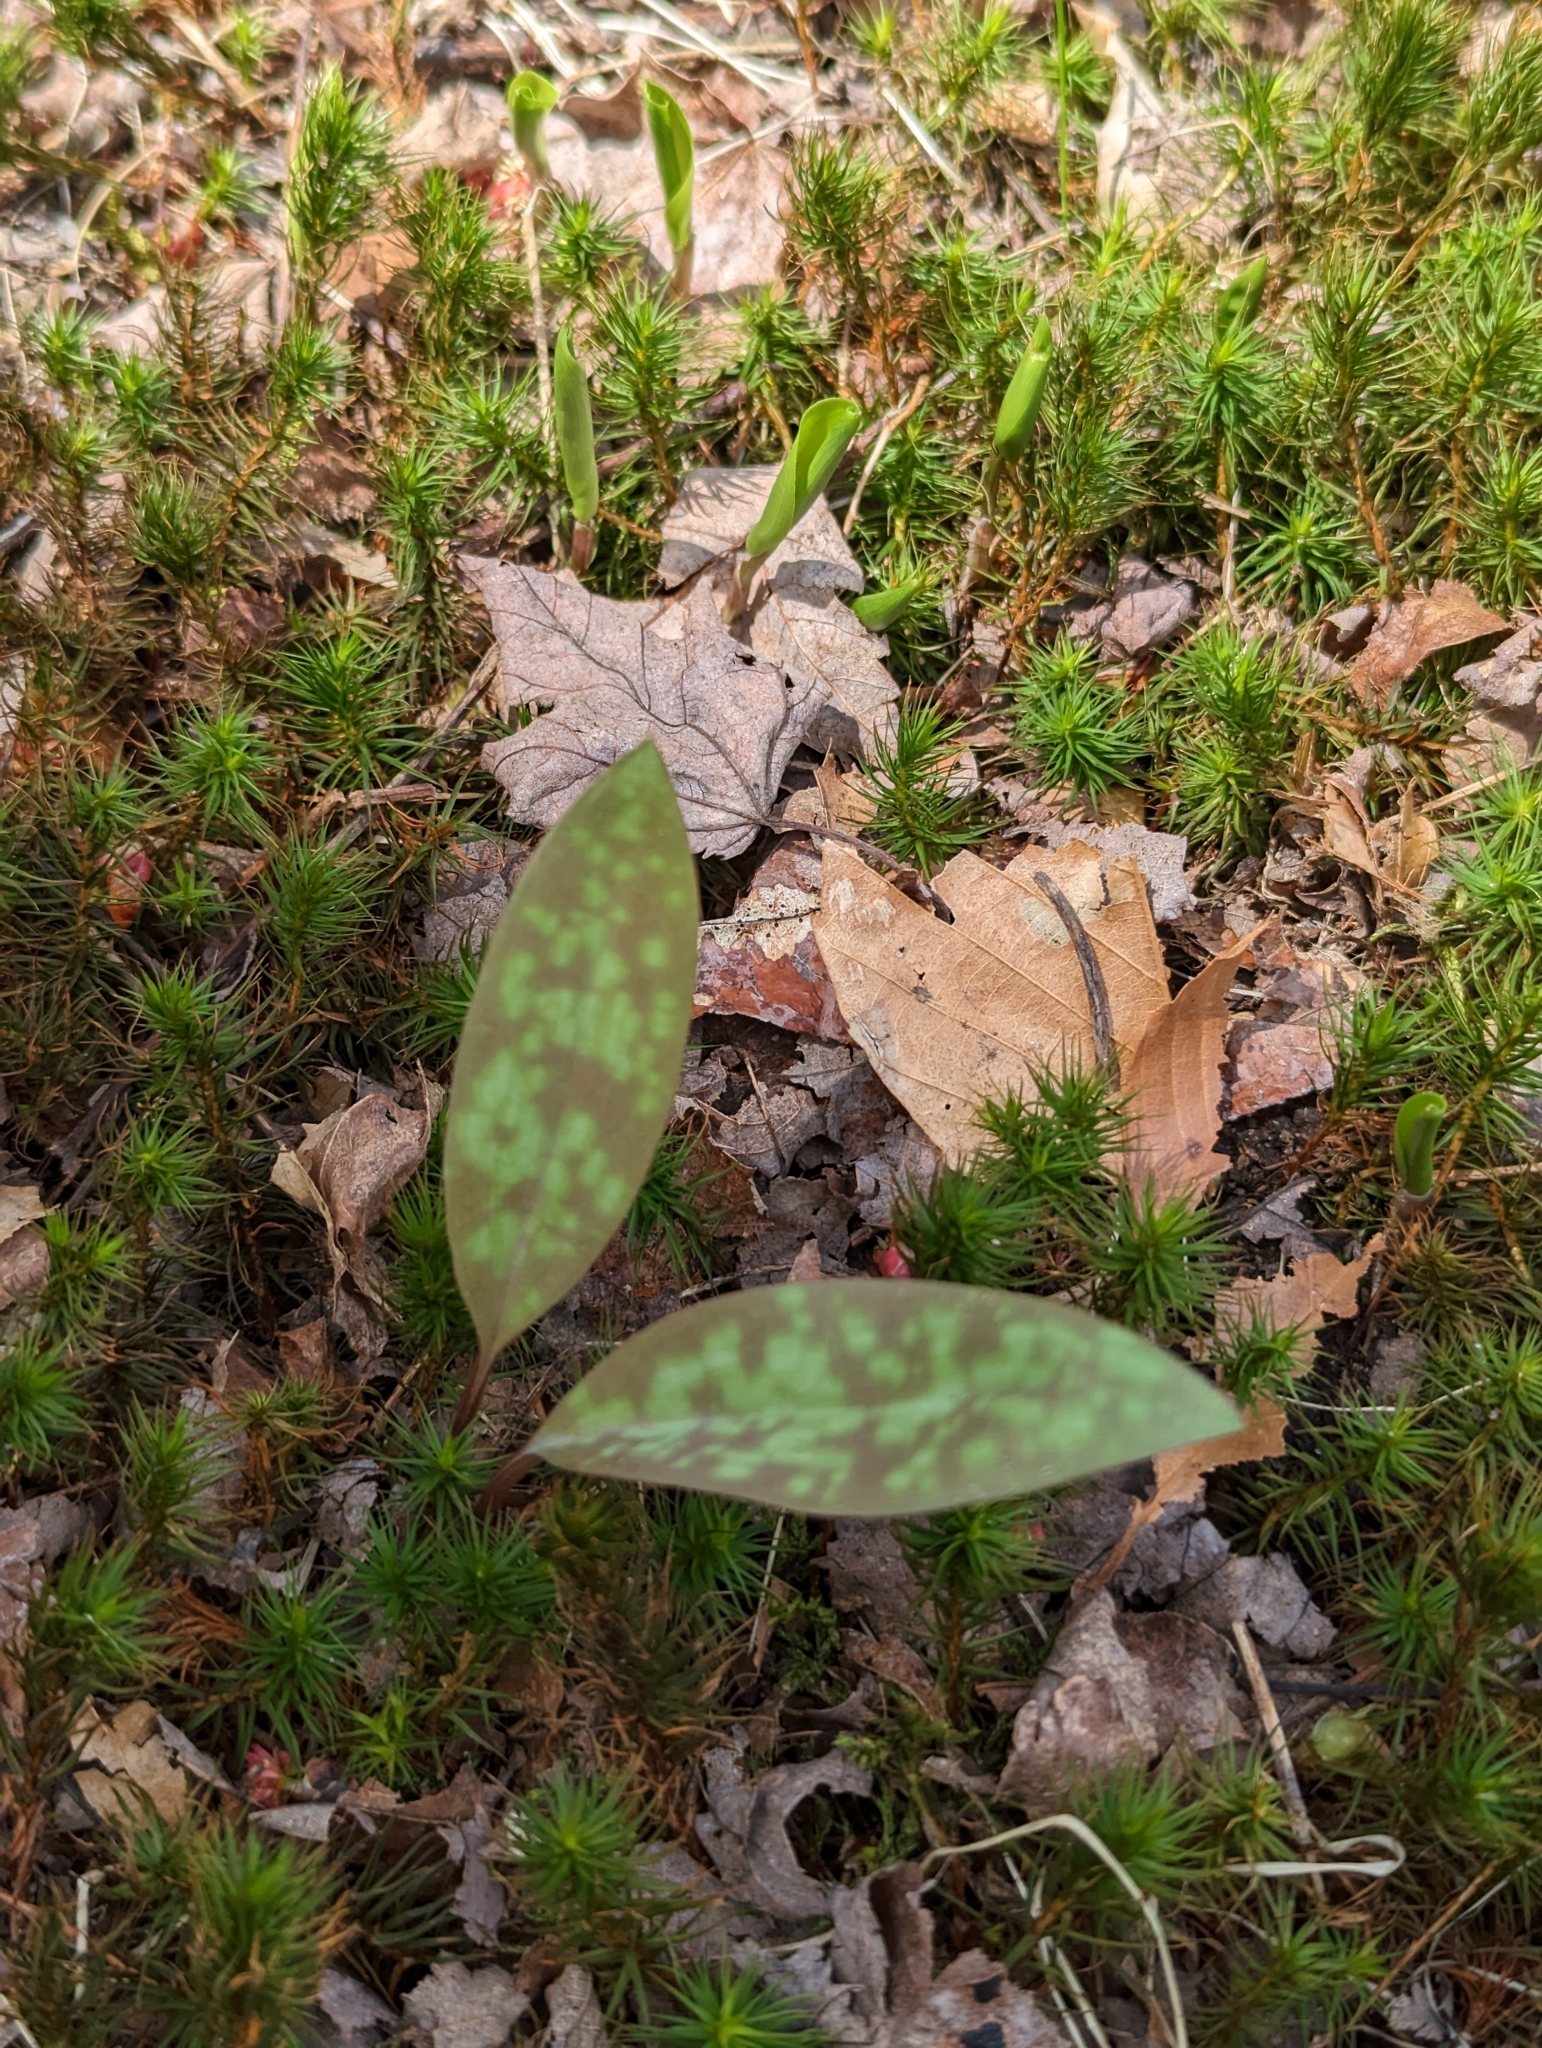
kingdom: Plantae
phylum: Tracheophyta
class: Liliopsida
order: Liliales
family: Liliaceae
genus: Erythronium
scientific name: Erythronium americanum
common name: Yellow adder's-tongue
